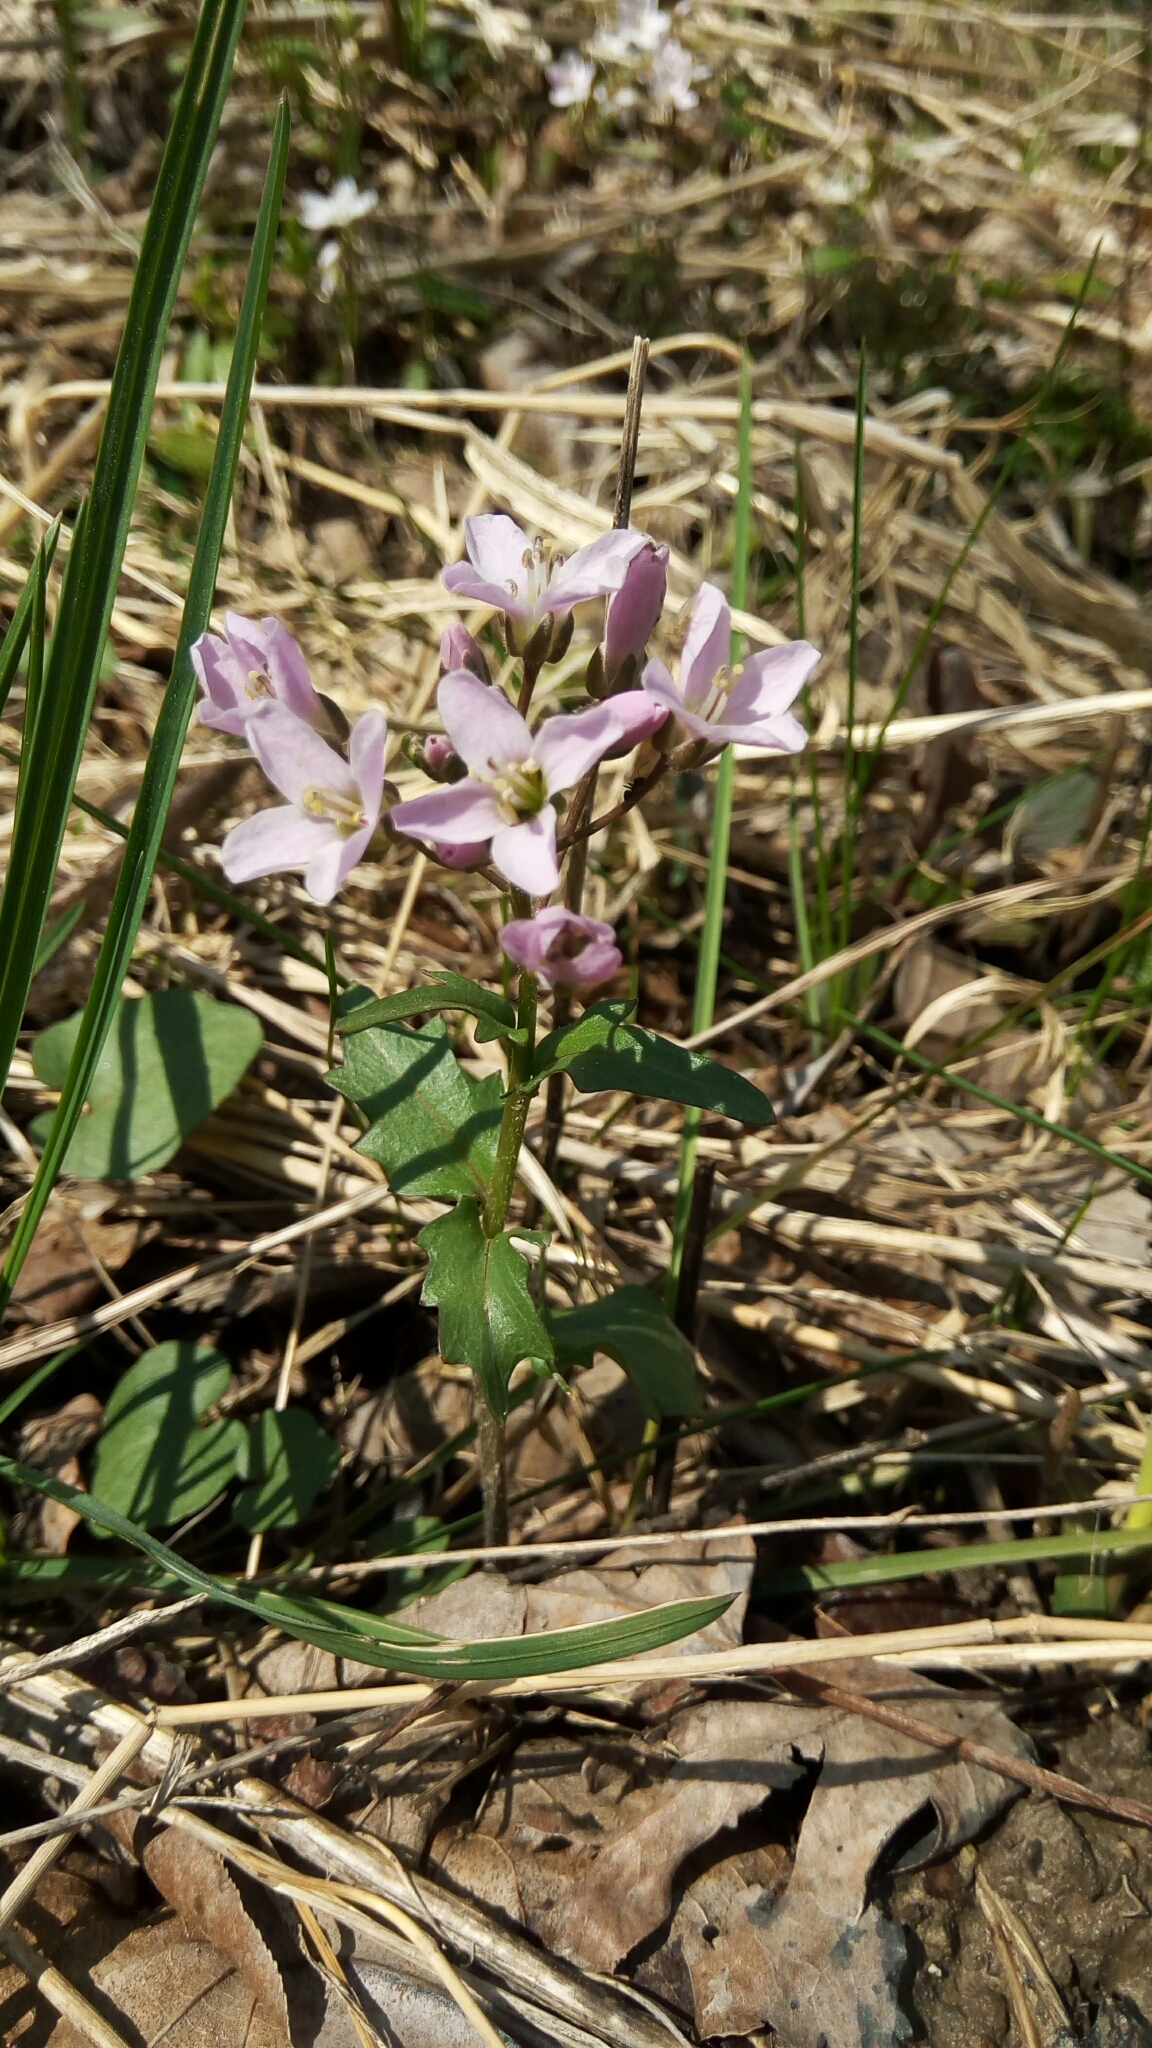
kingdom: Plantae
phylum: Tracheophyta
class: Magnoliopsida
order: Brassicales
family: Brassicaceae
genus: Cardamine
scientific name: Cardamine douglassii
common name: Purple cress
